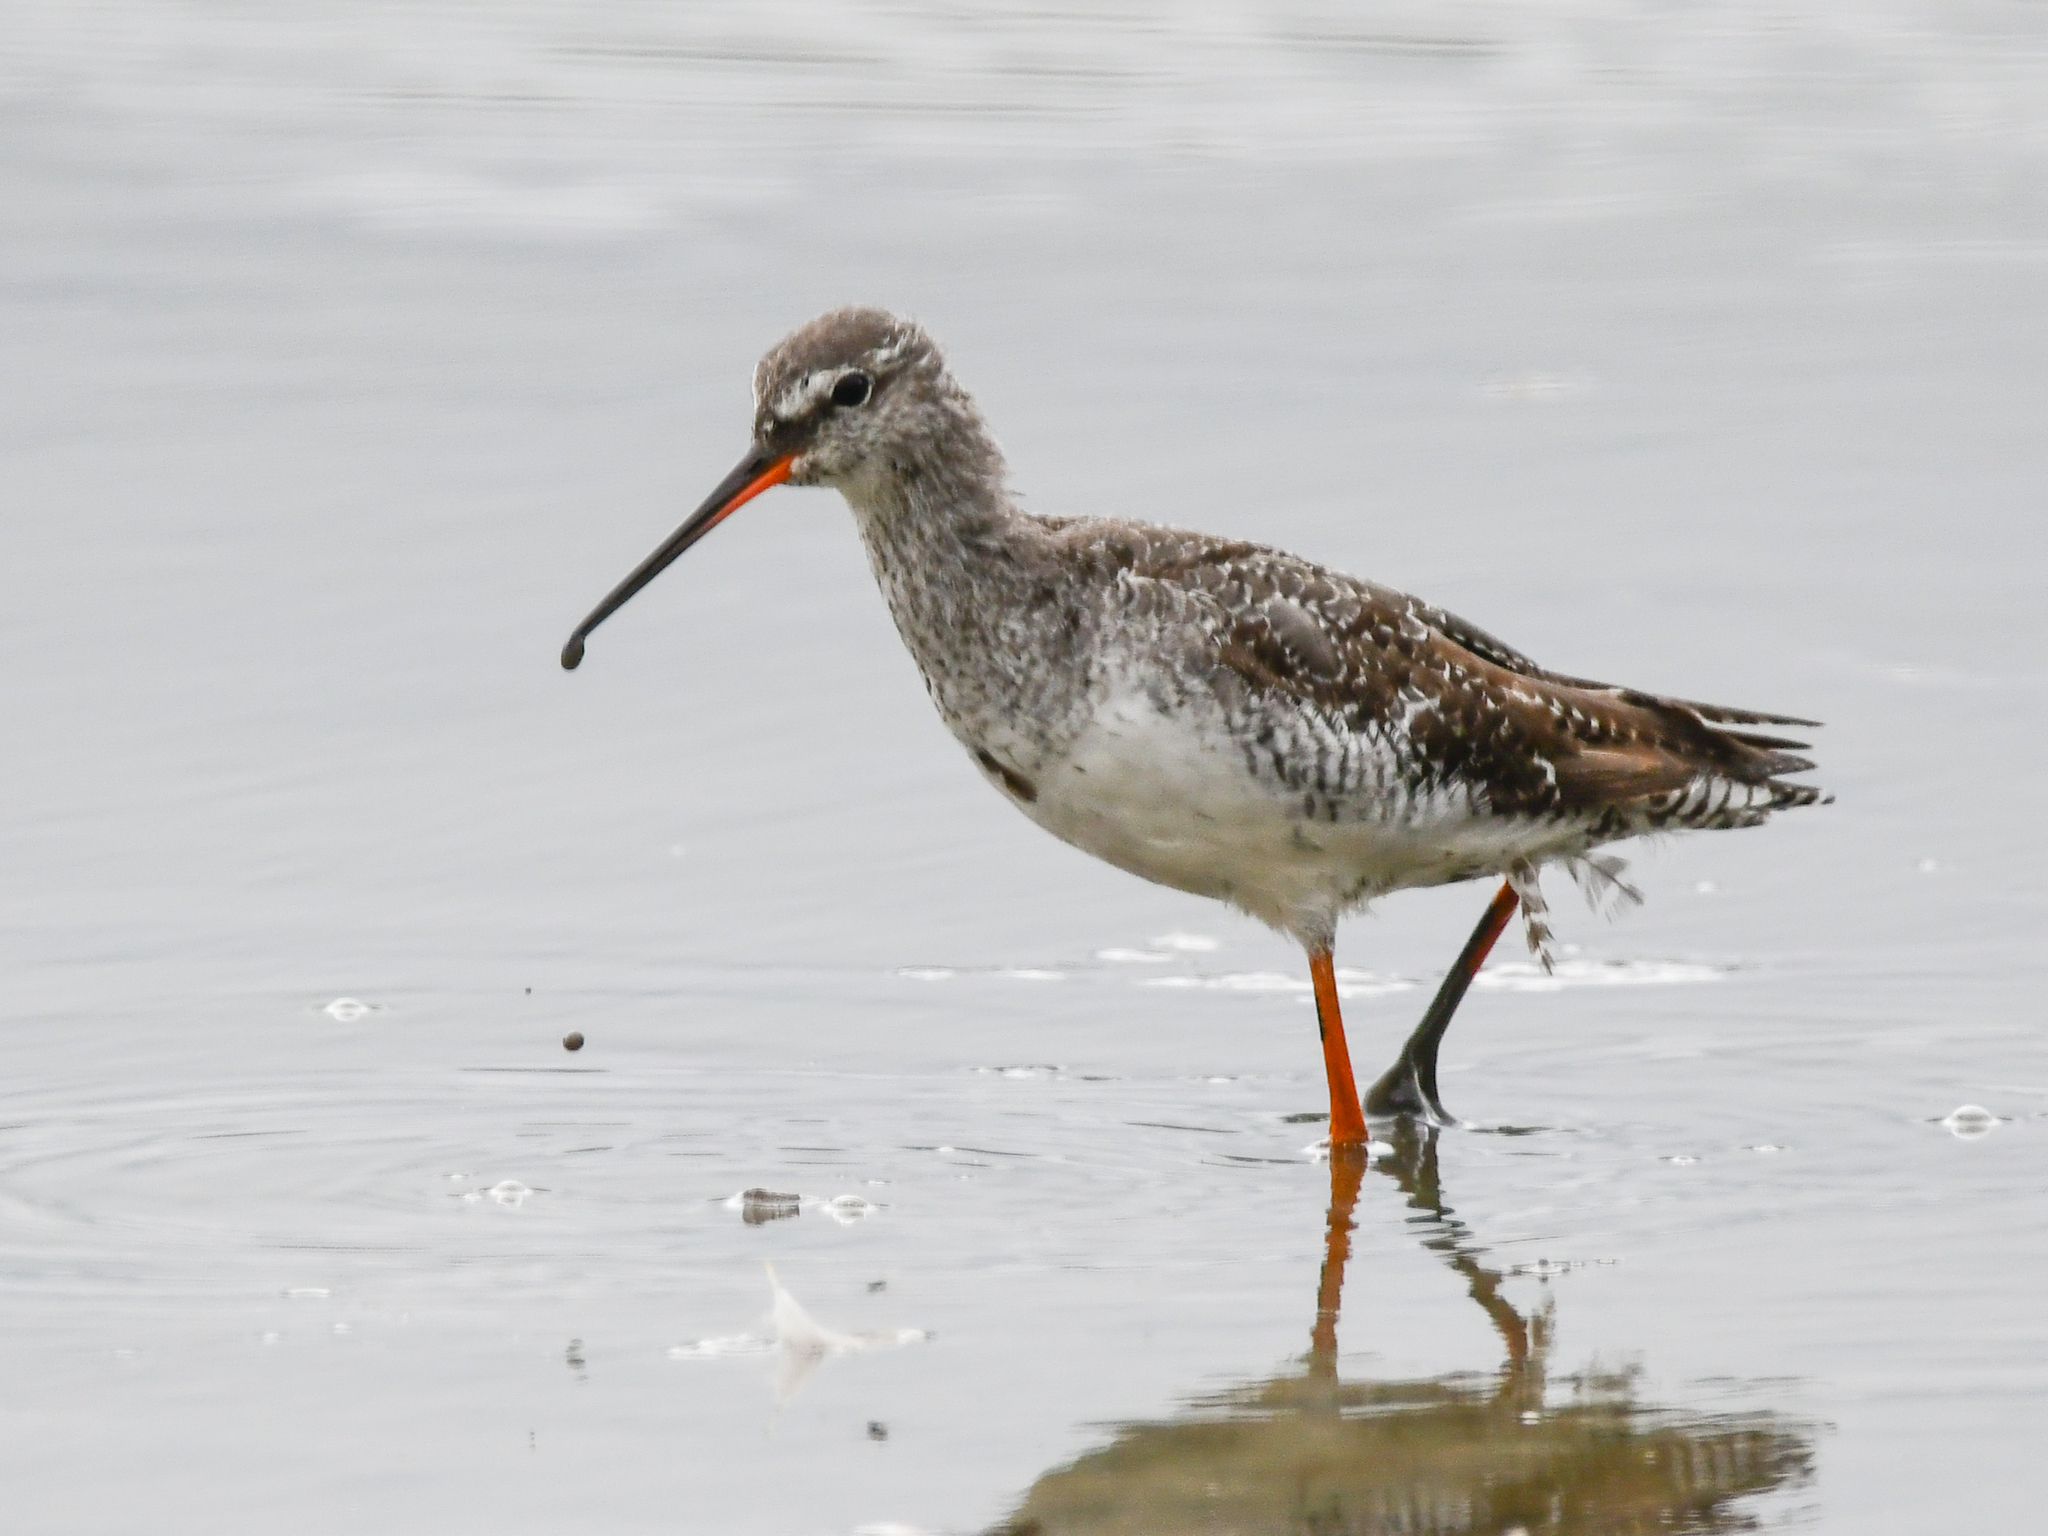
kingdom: Animalia
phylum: Chordata
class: Aves
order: Charadriiformes
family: Scolopacidae
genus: Tringa
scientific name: Tringa erythropus
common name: Spotted redshank
